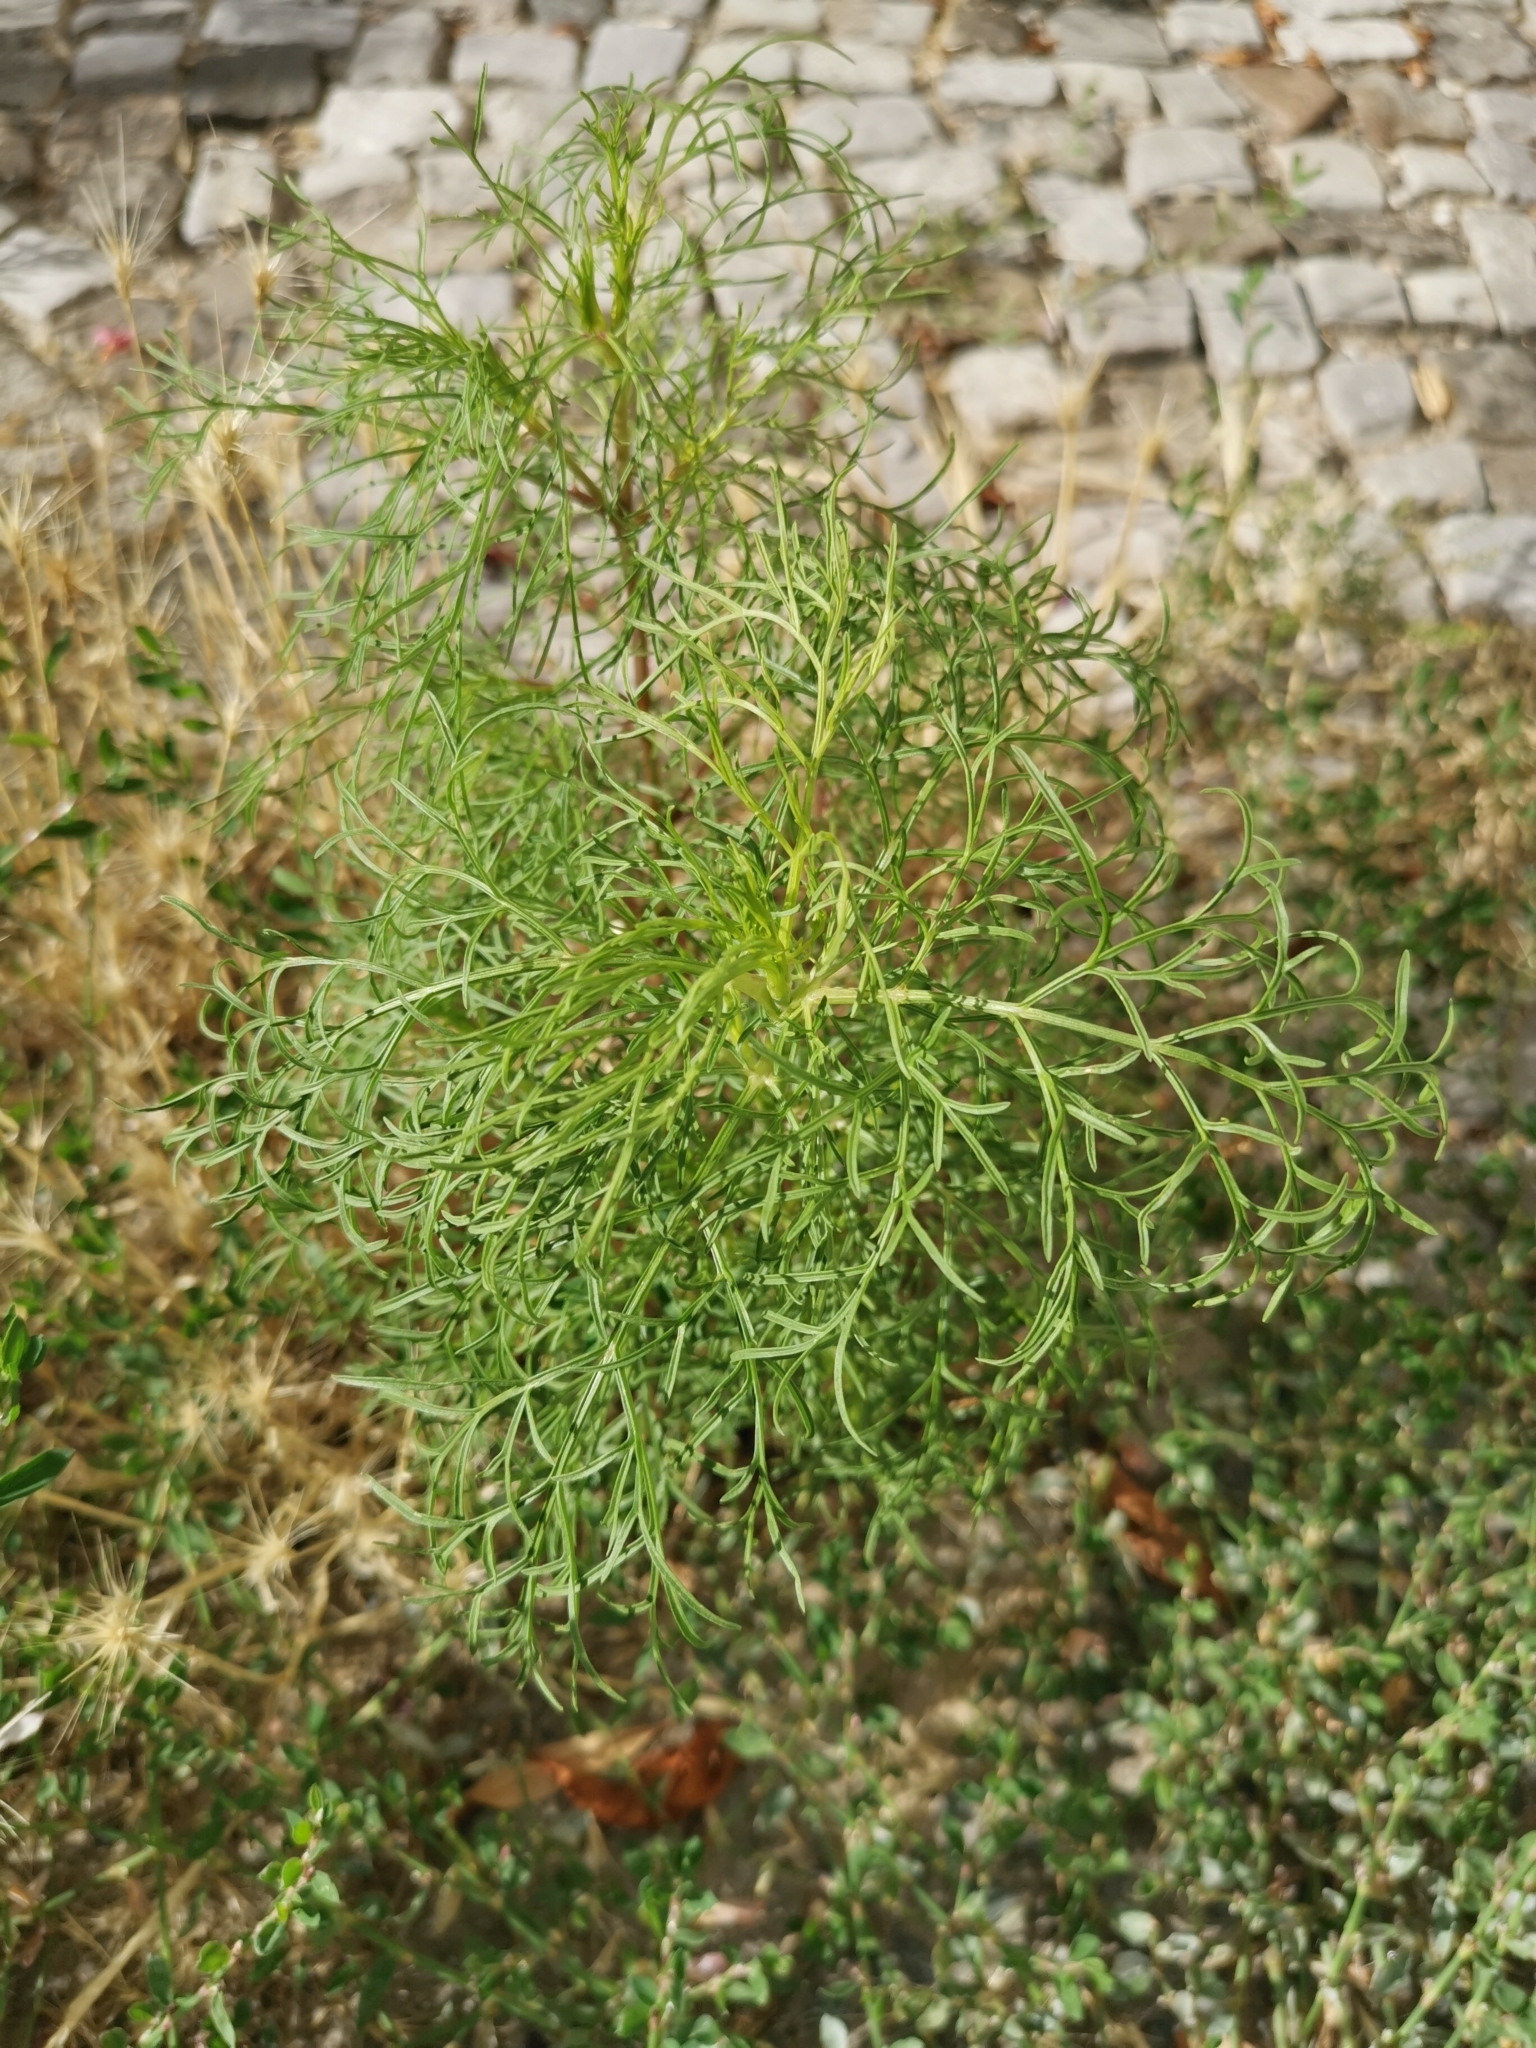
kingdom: Plantae
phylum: Tracheophyta
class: Magnoliopsida
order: Asterales
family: Asteraceae
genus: Cosmos
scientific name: Cosmos bipinnatus
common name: Garden cosmos
